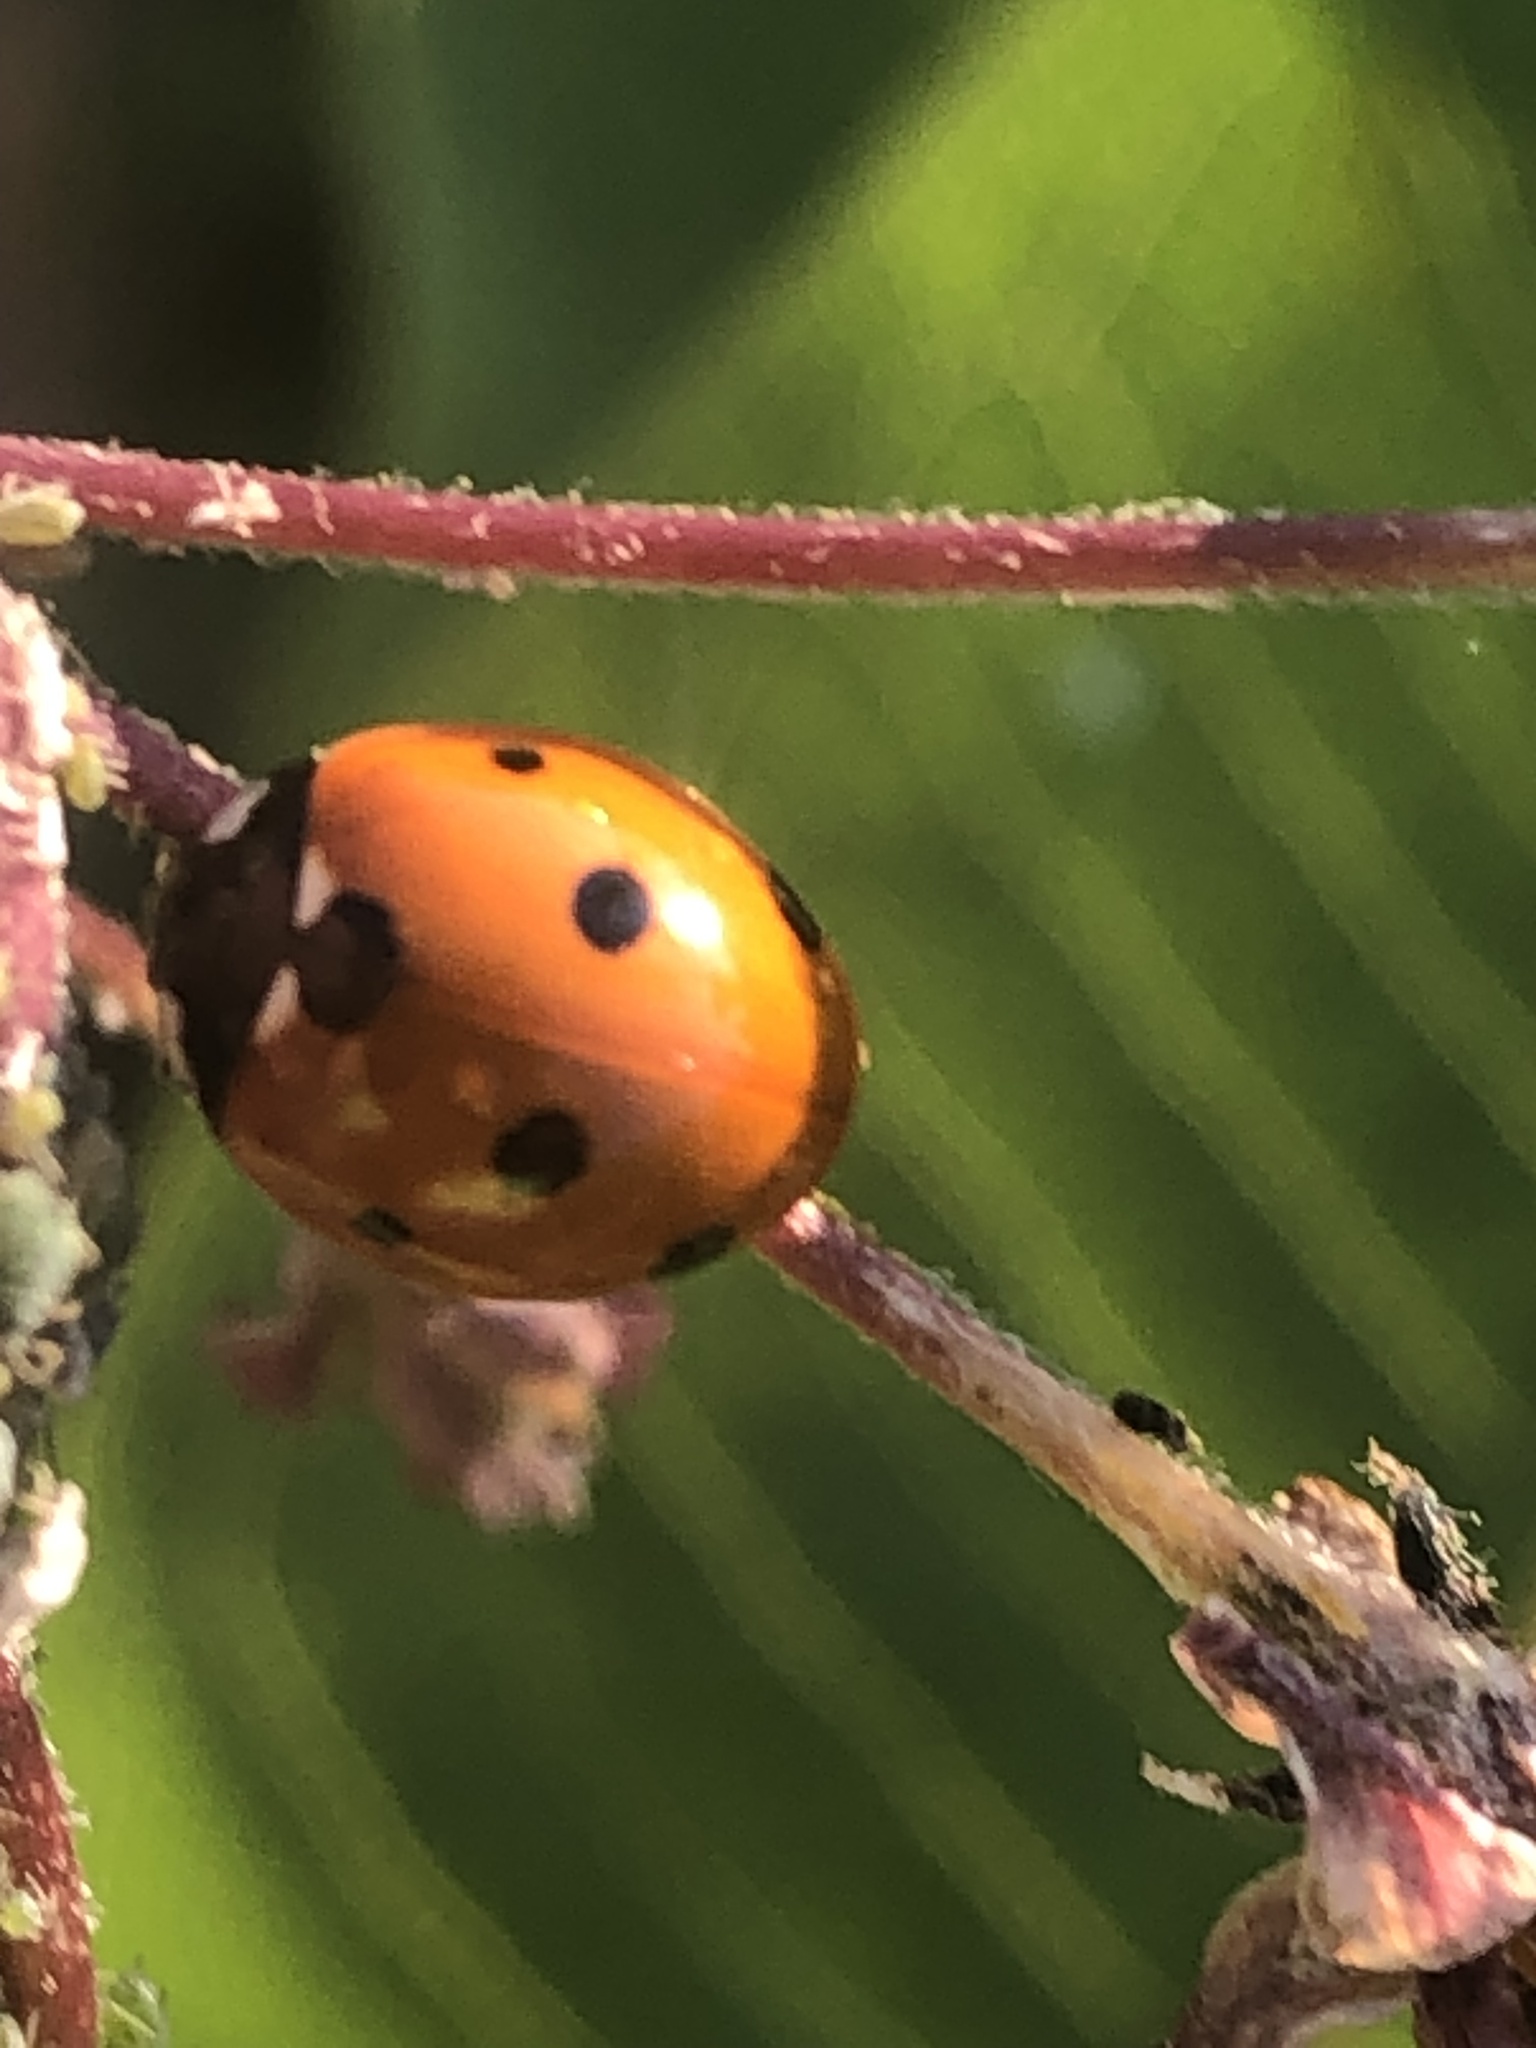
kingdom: Animalia
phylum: Arthropoda
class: Insecta
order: Coleoptera
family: Coccinellidae
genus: Coccinella
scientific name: Coccinella septempunctata
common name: Sevenspotted lady beetle
